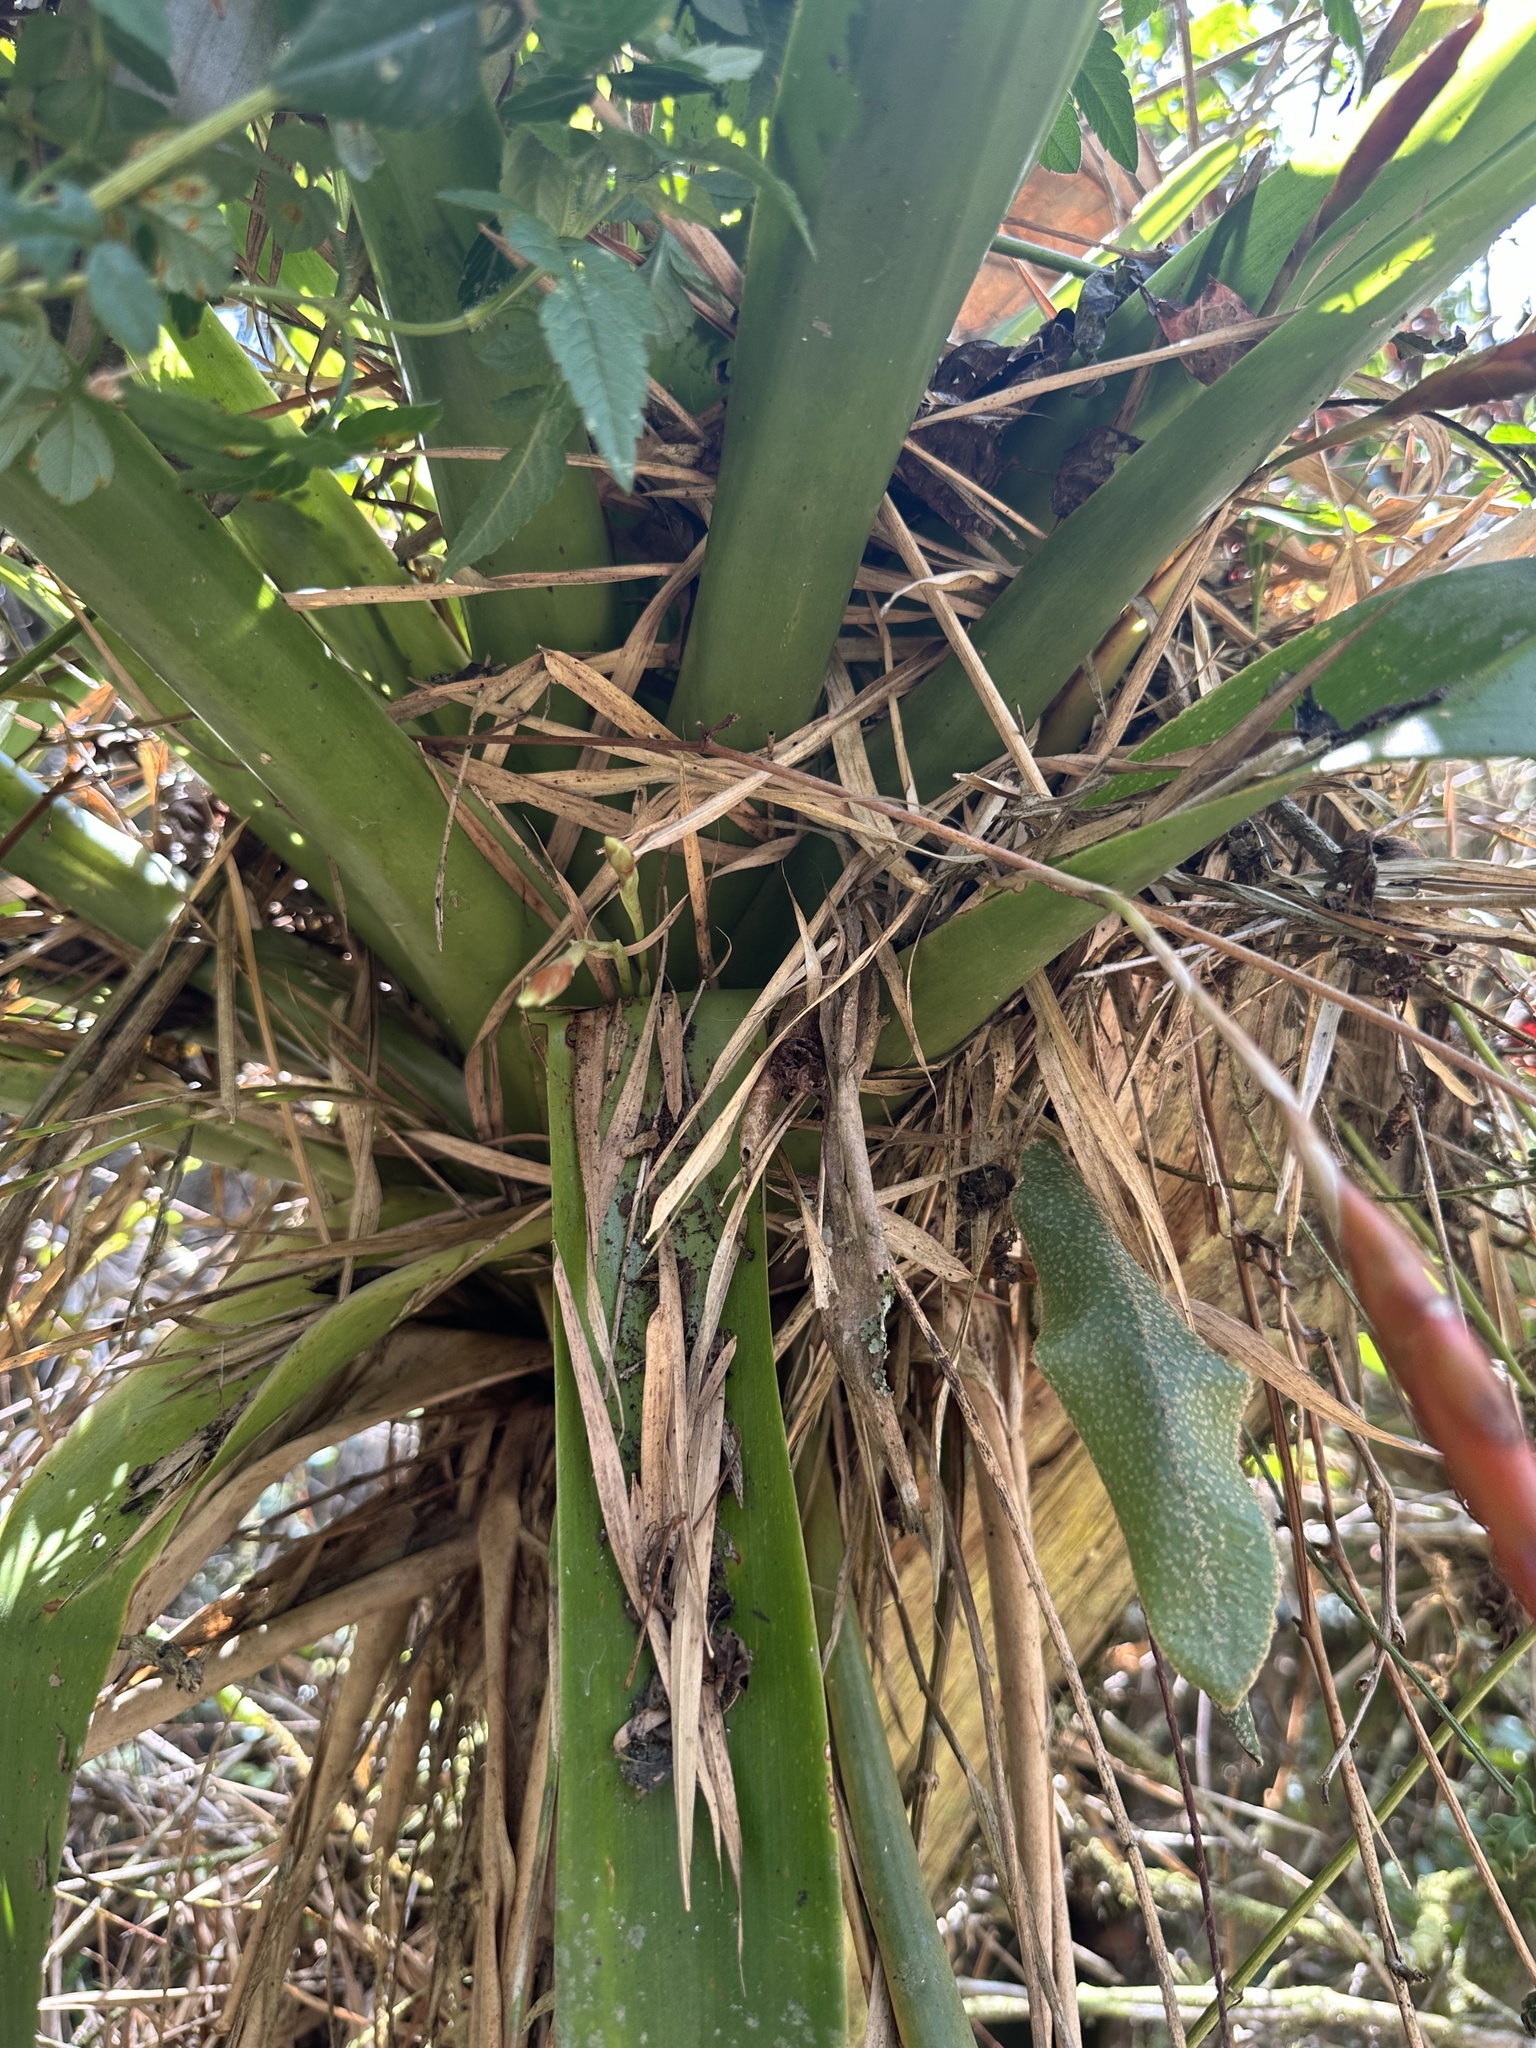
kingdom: Plantae
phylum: Tracheophyta
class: Liliopsida
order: Poales
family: Bromeliaceae
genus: Tillandsia
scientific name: Tillandsia complanata
